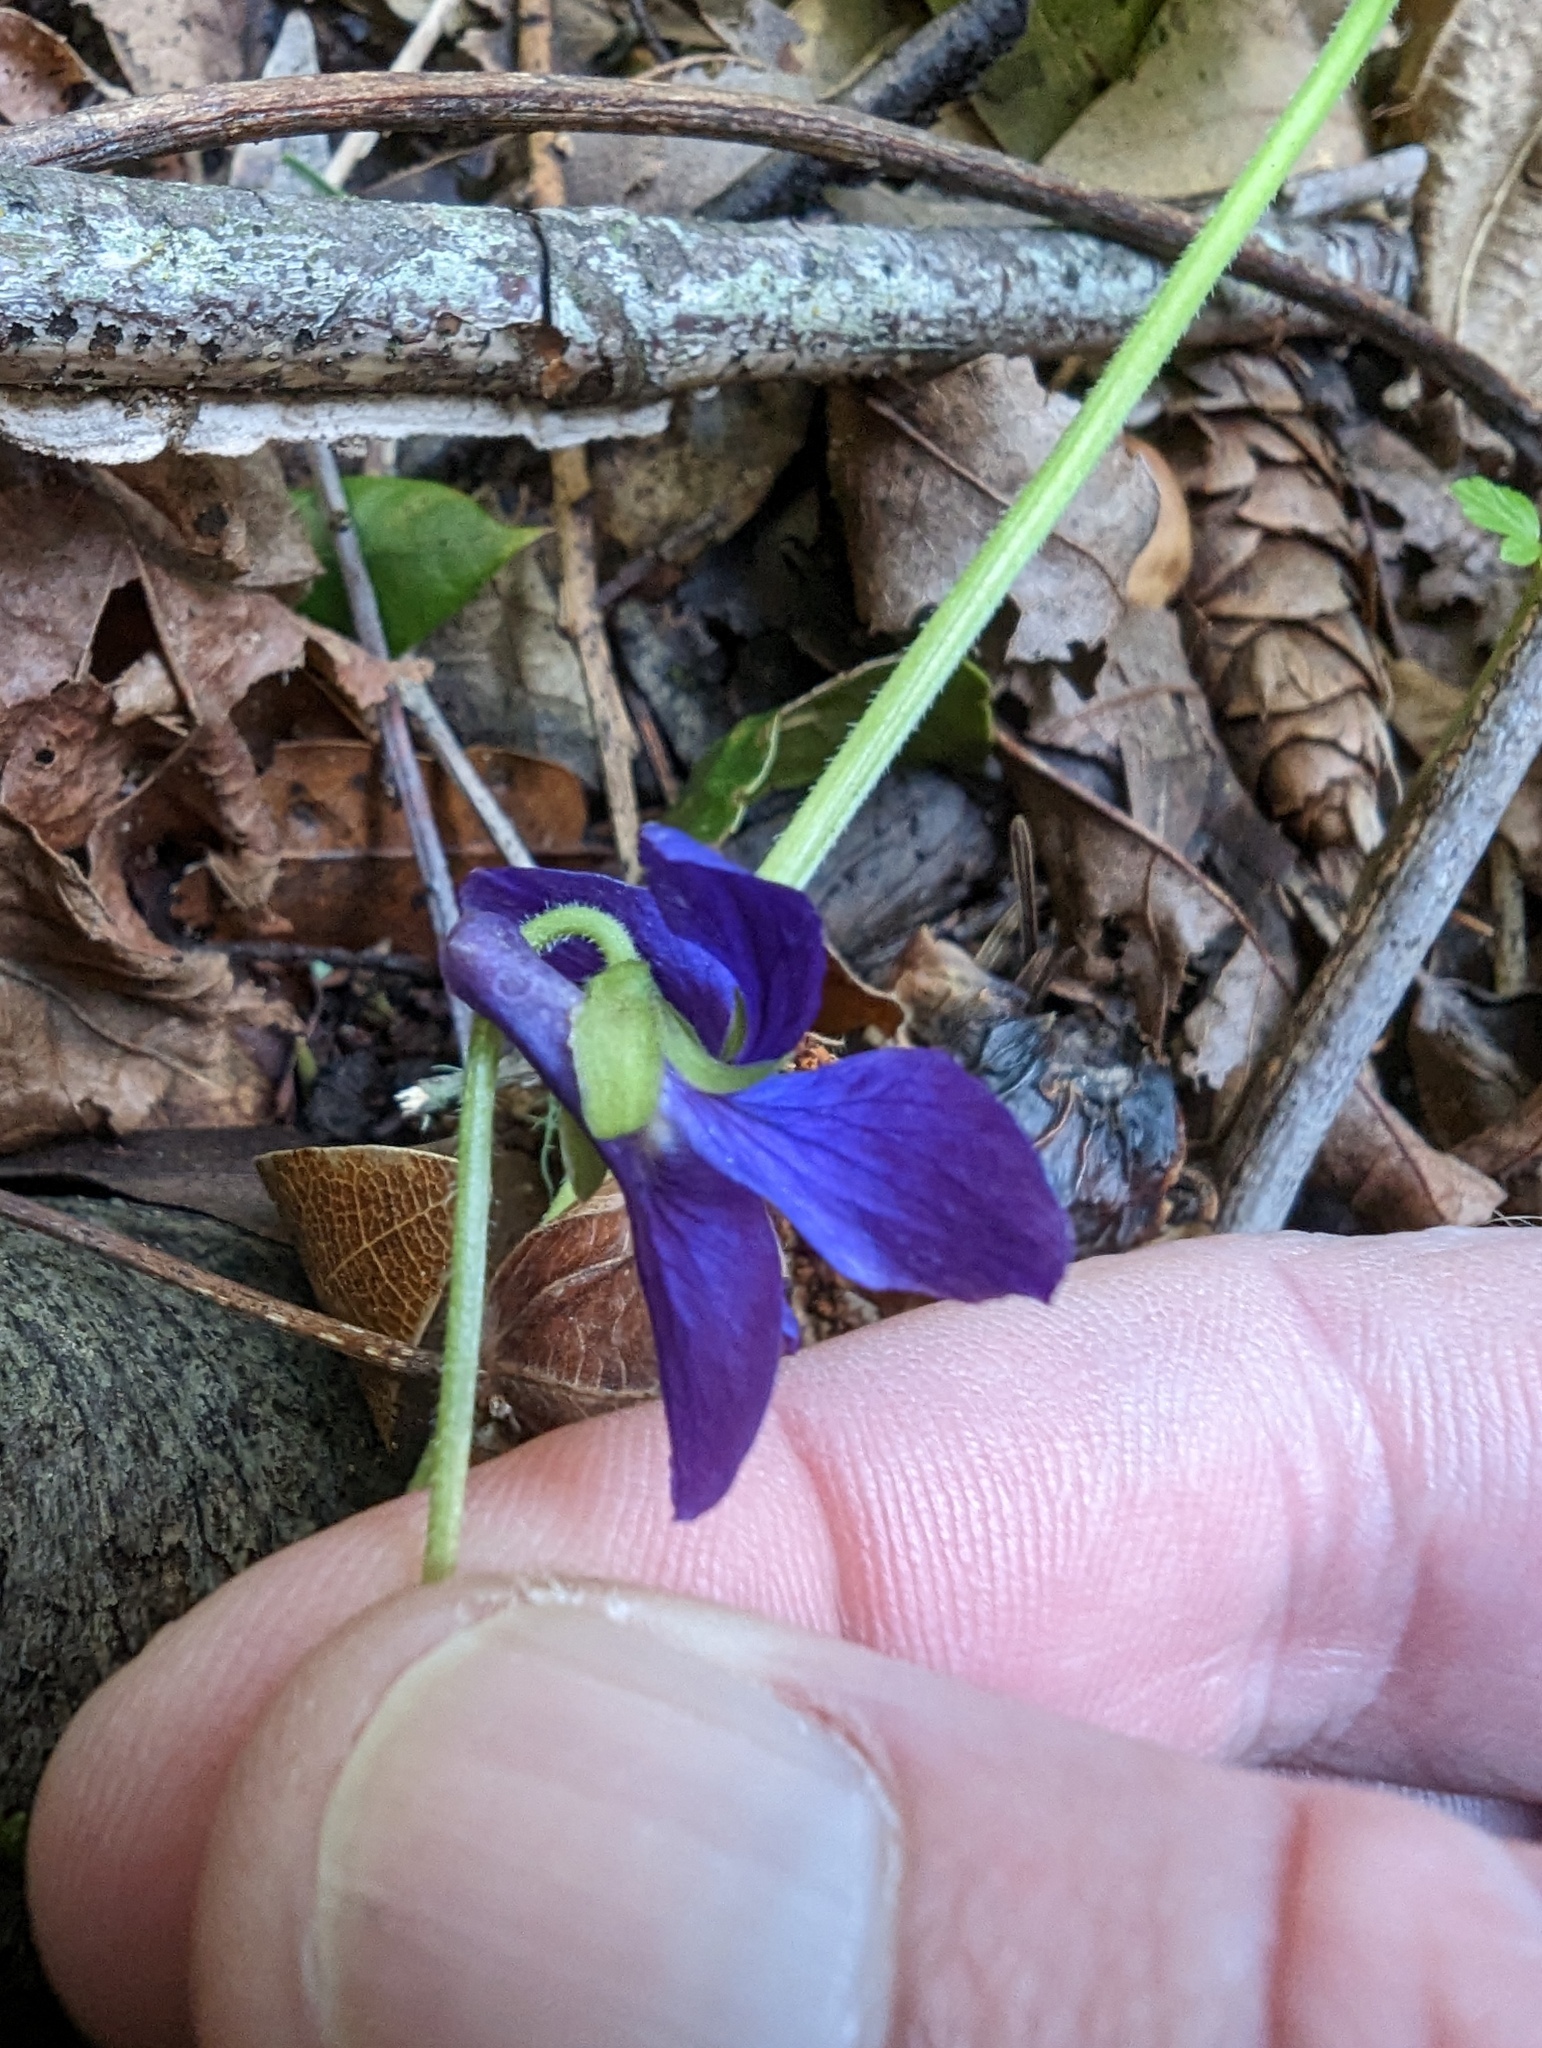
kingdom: Plantae
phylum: Tracheophyta
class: Magnoliopsida
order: Malpighiales
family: Violaceae
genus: Viola
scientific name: Viola odorata
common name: Sweet violet
